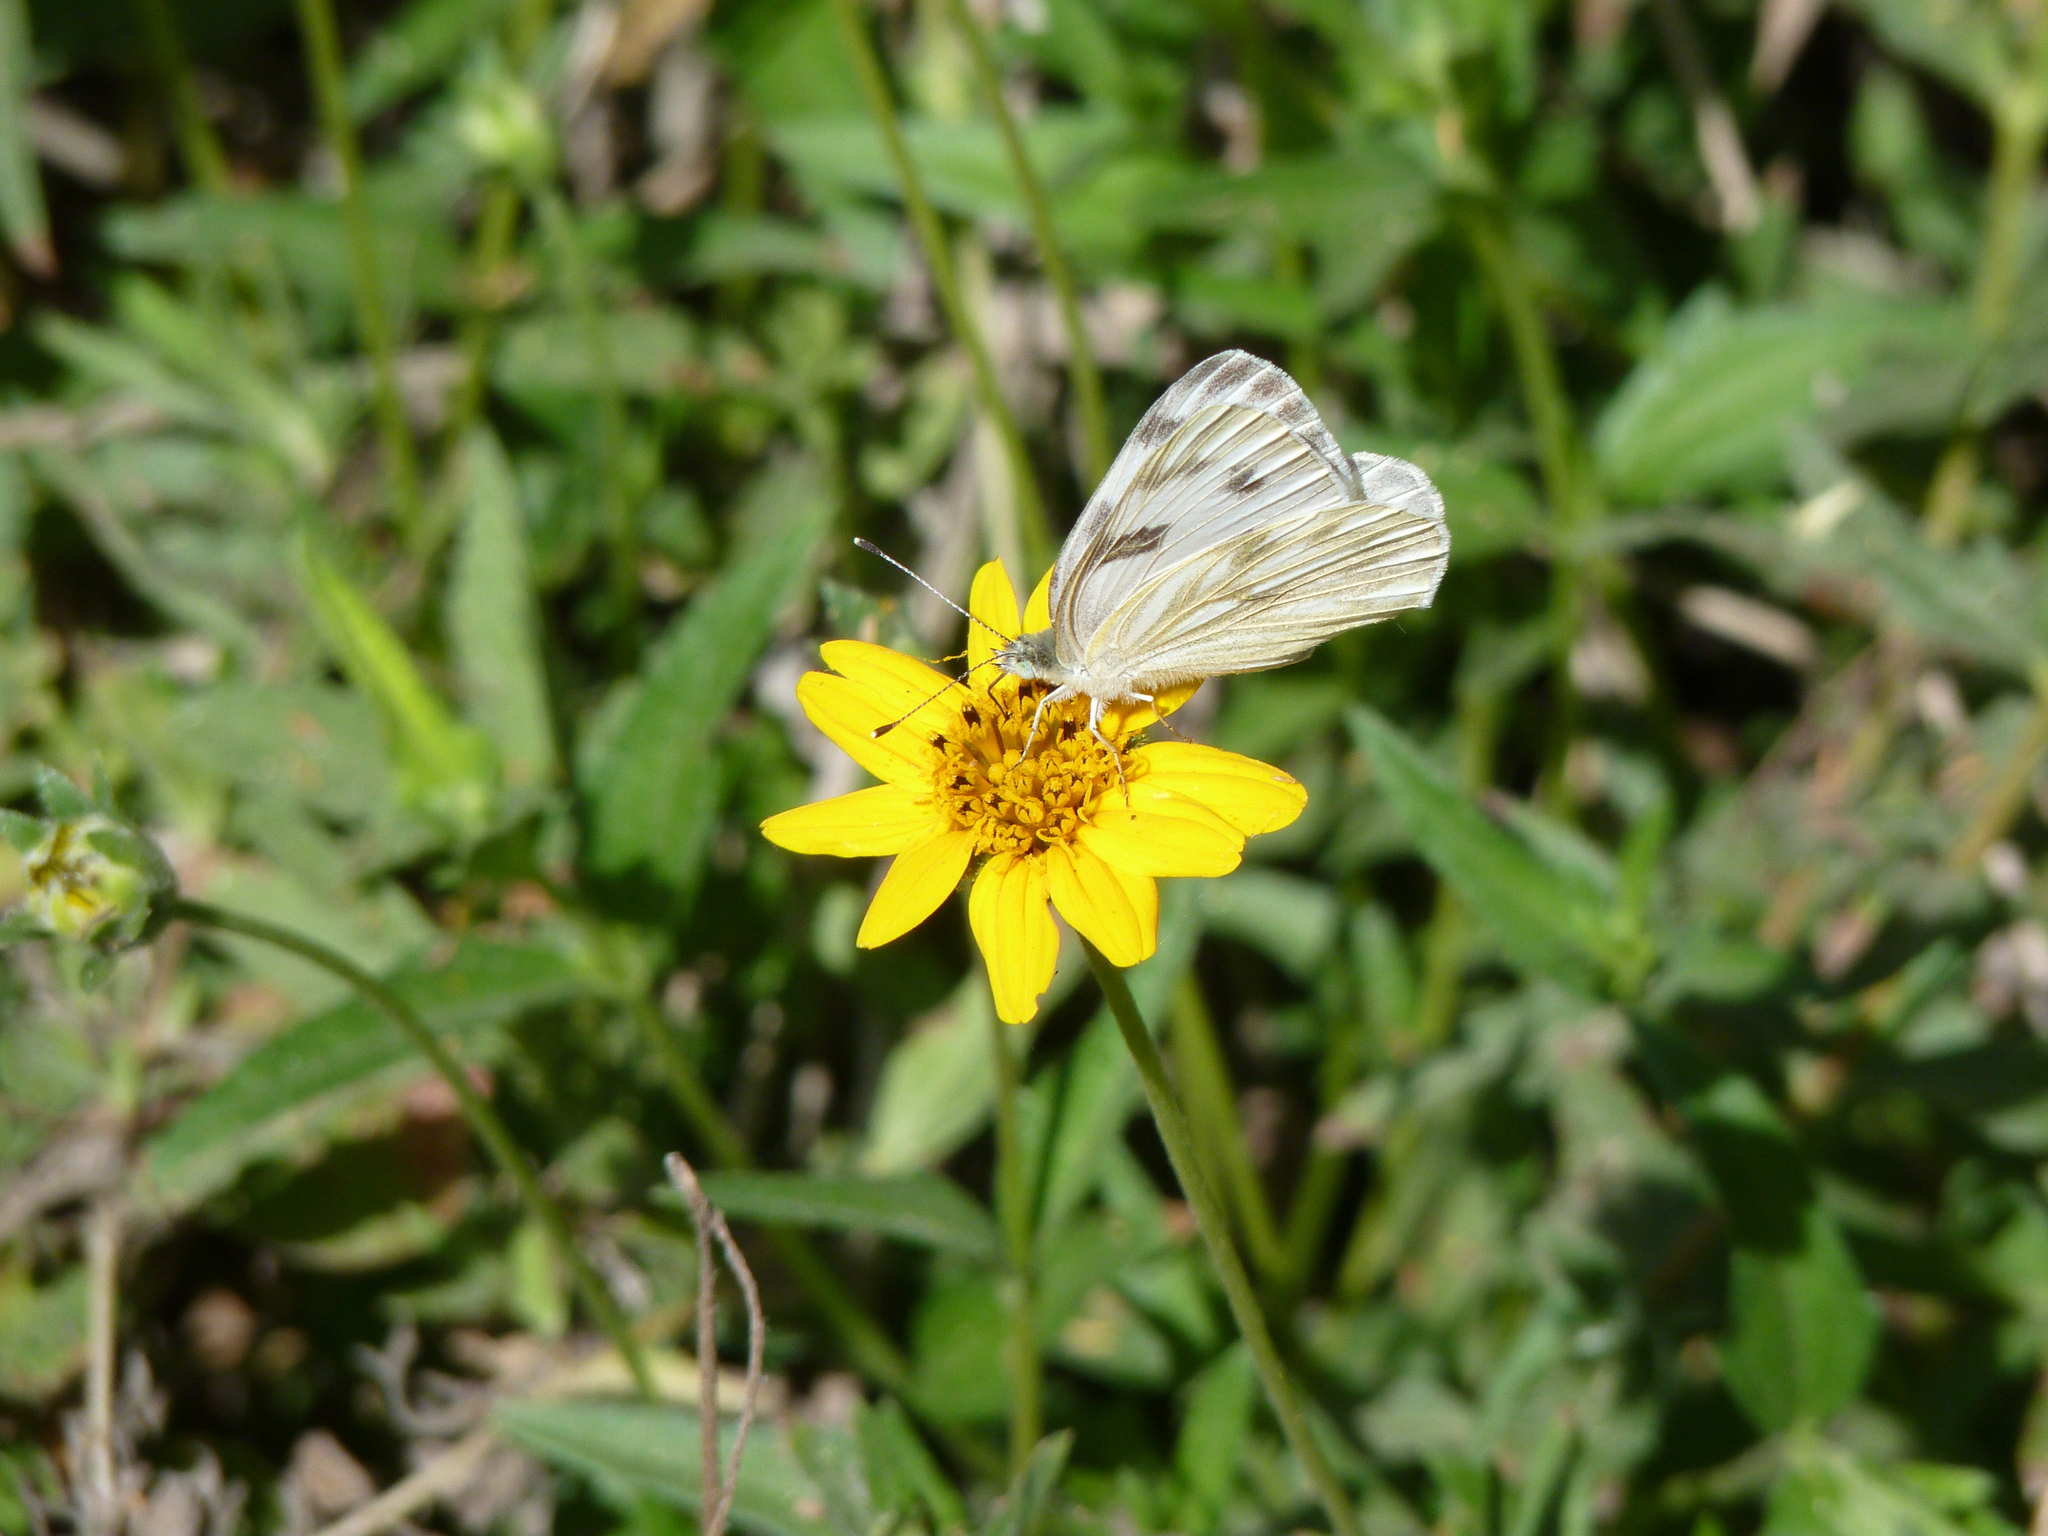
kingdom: Animalia
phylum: Arthropoda
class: Insecta
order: Lepidoptera
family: Pieridae
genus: Pontia
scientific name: Pontia protodice
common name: Checkered white
